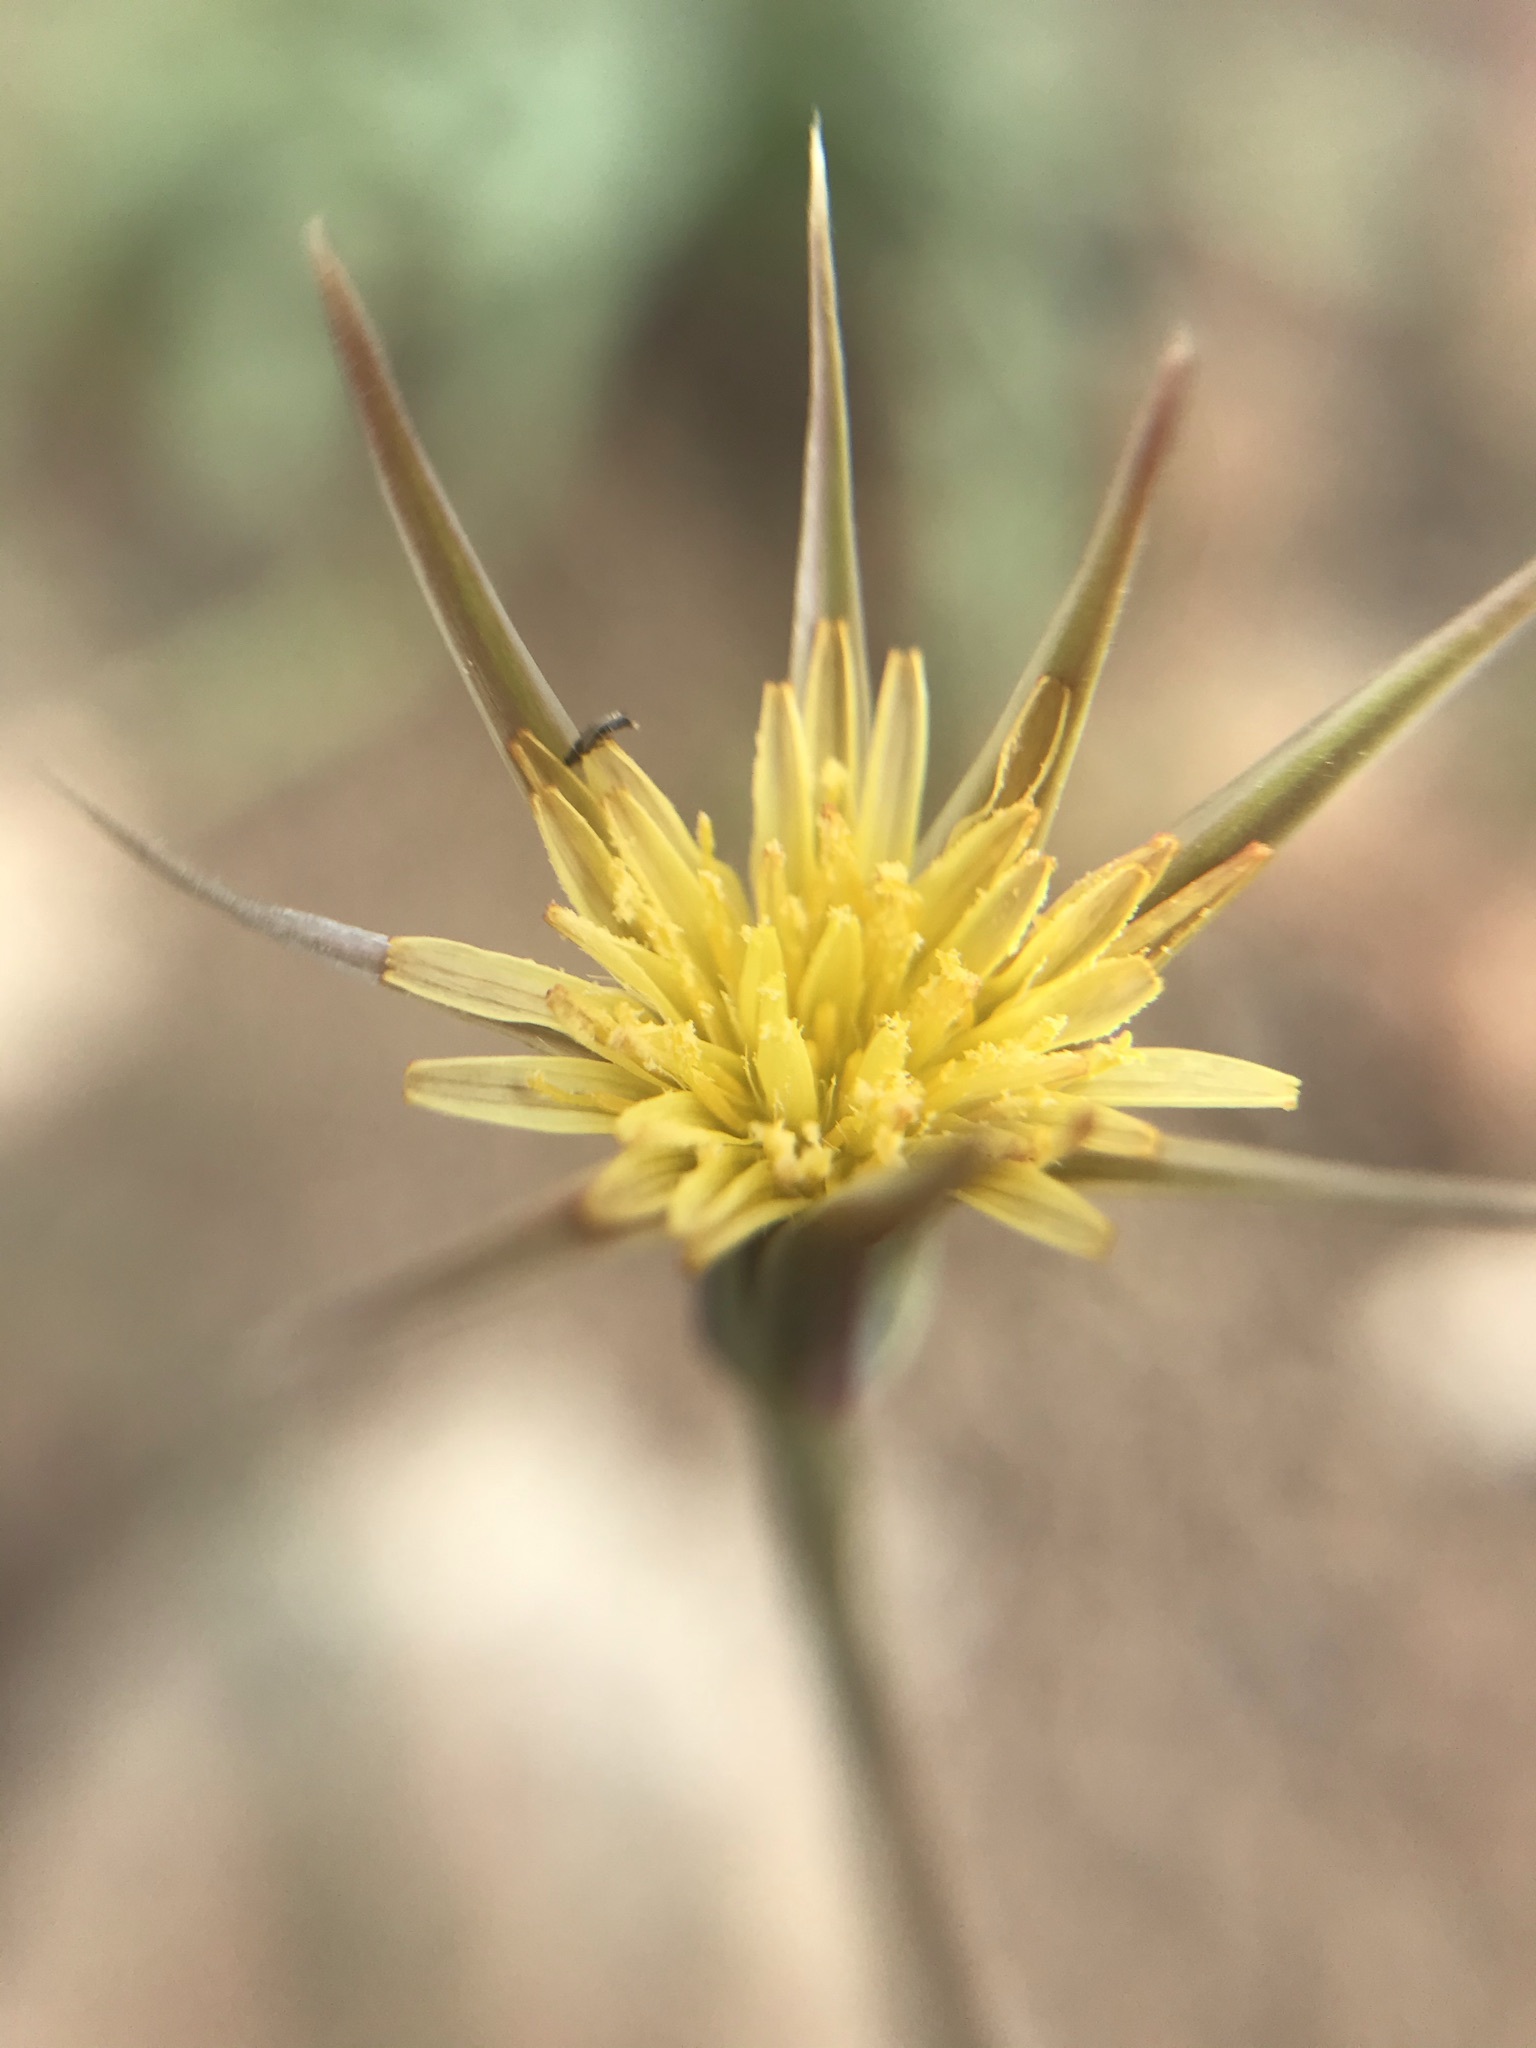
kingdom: Plantae
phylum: Tracheophyta
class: Magnoliopsida
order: Asterales
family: Asteraceae
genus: Microseris
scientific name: Microseris lindleyi
